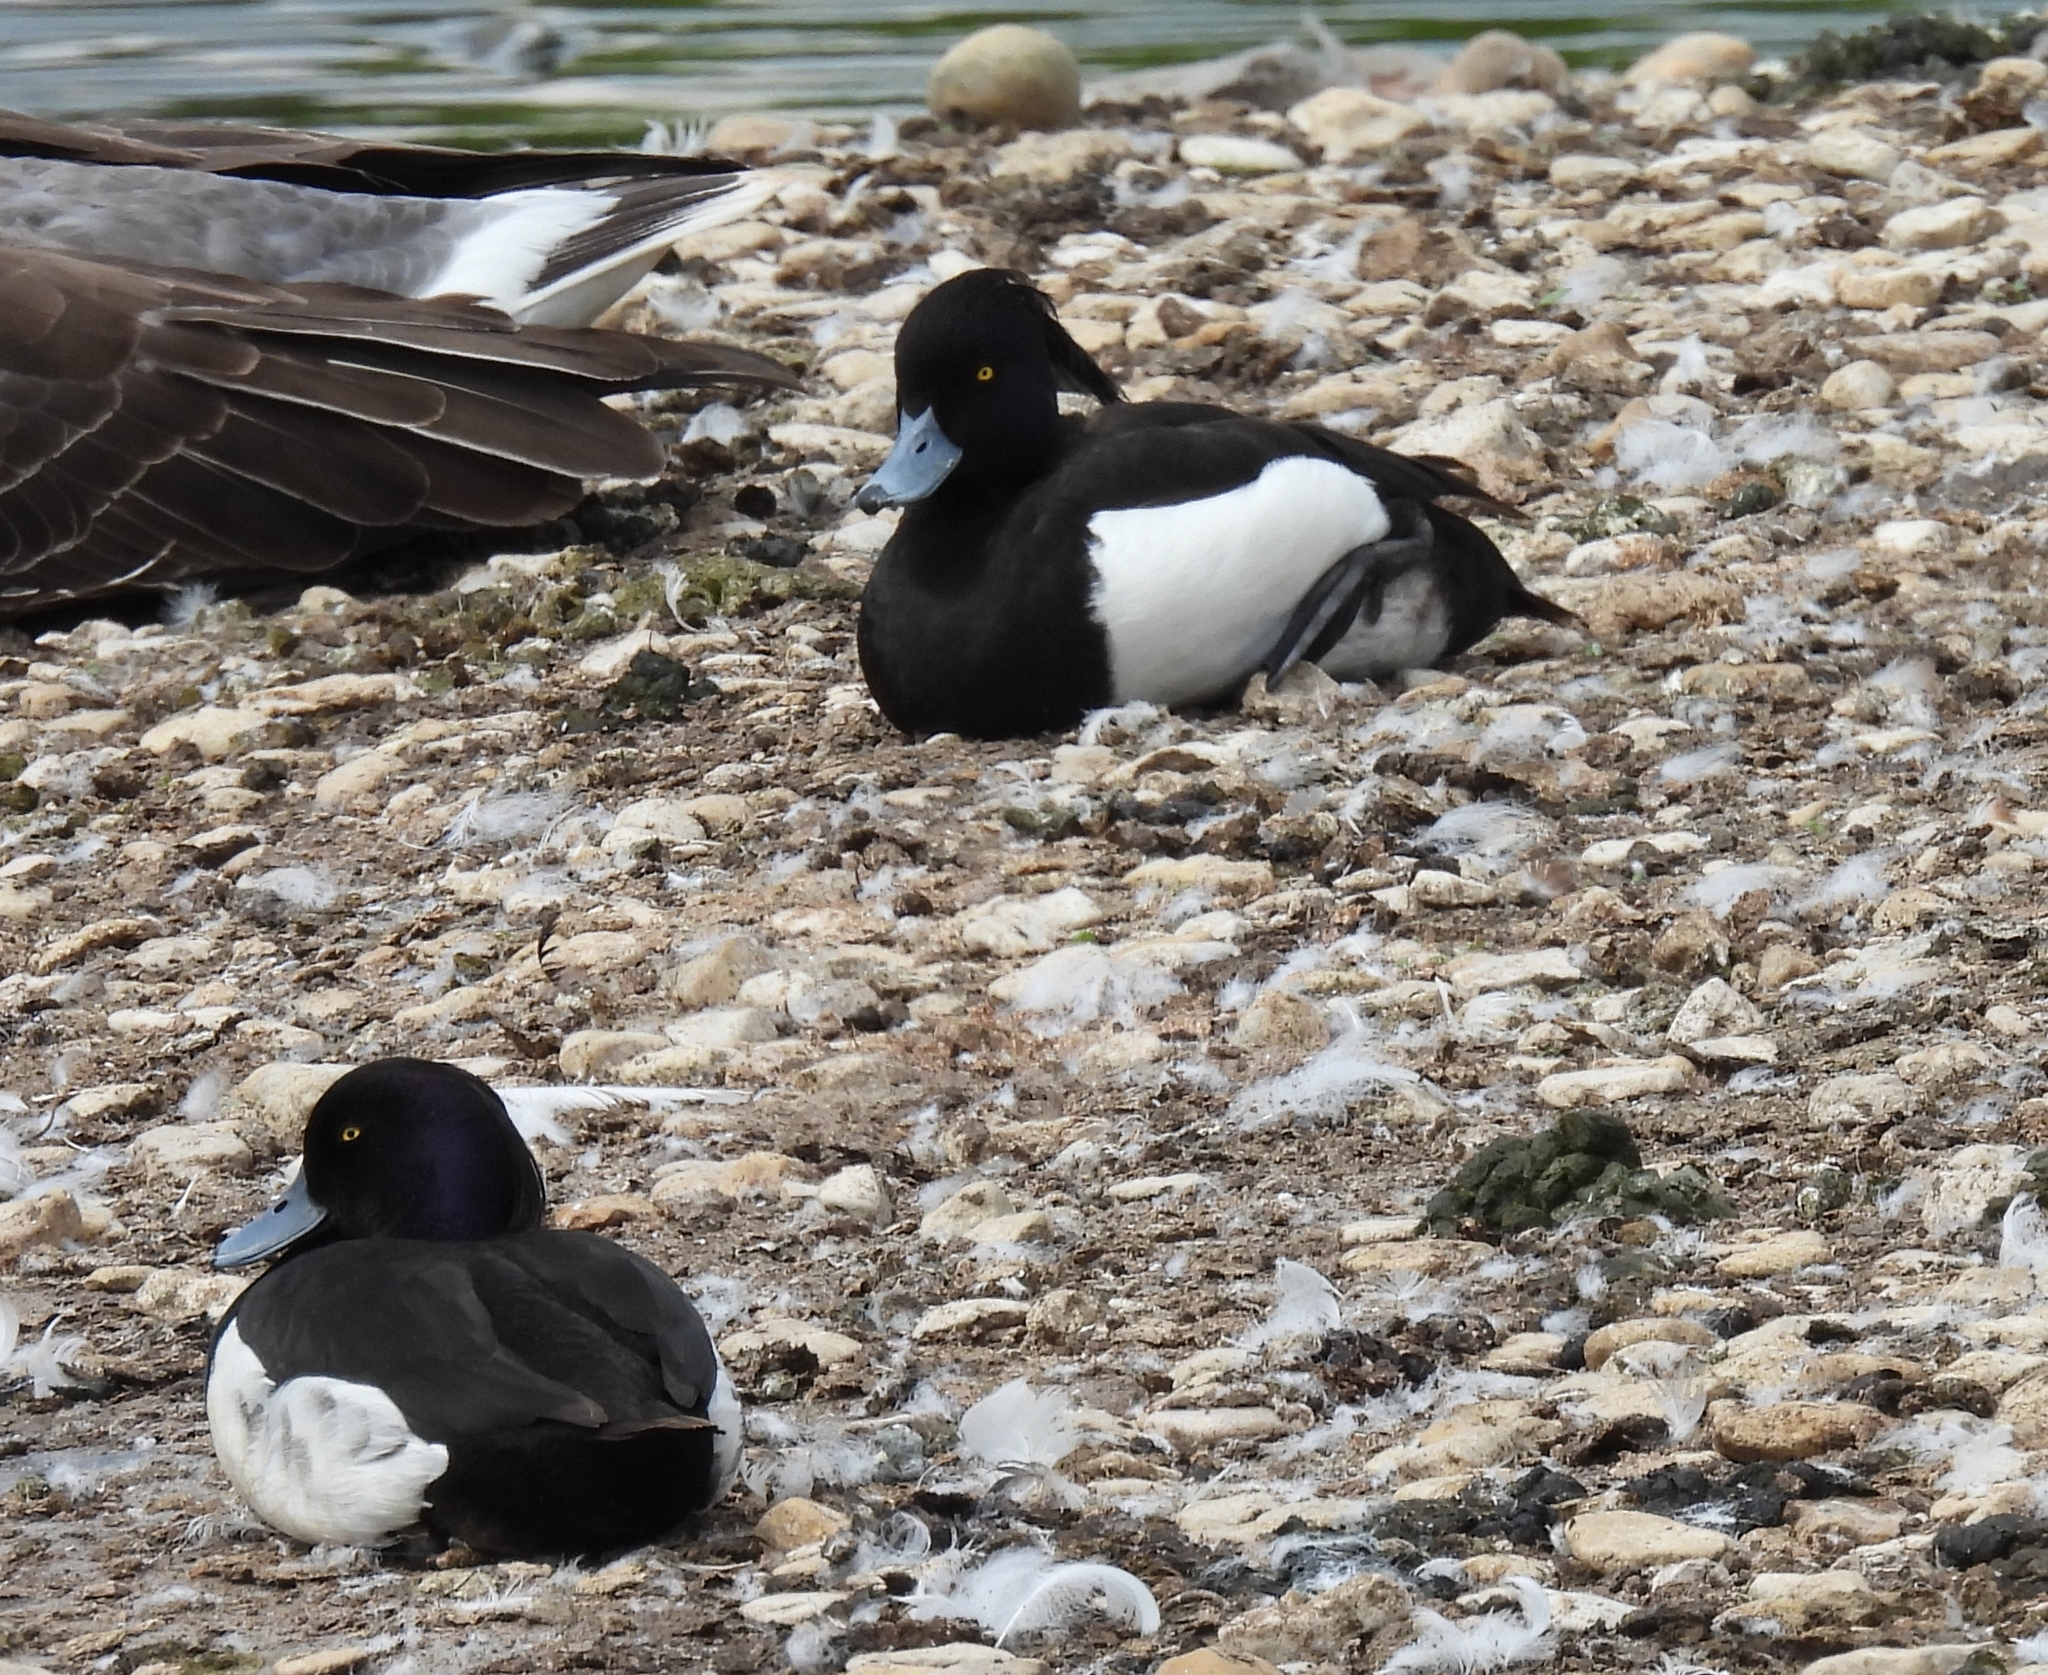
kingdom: Animalia
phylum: Chordata
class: Aves
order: Anseriformes
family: Anatidae
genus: Aythya
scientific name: Aythya fuligula
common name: Tufted duck
